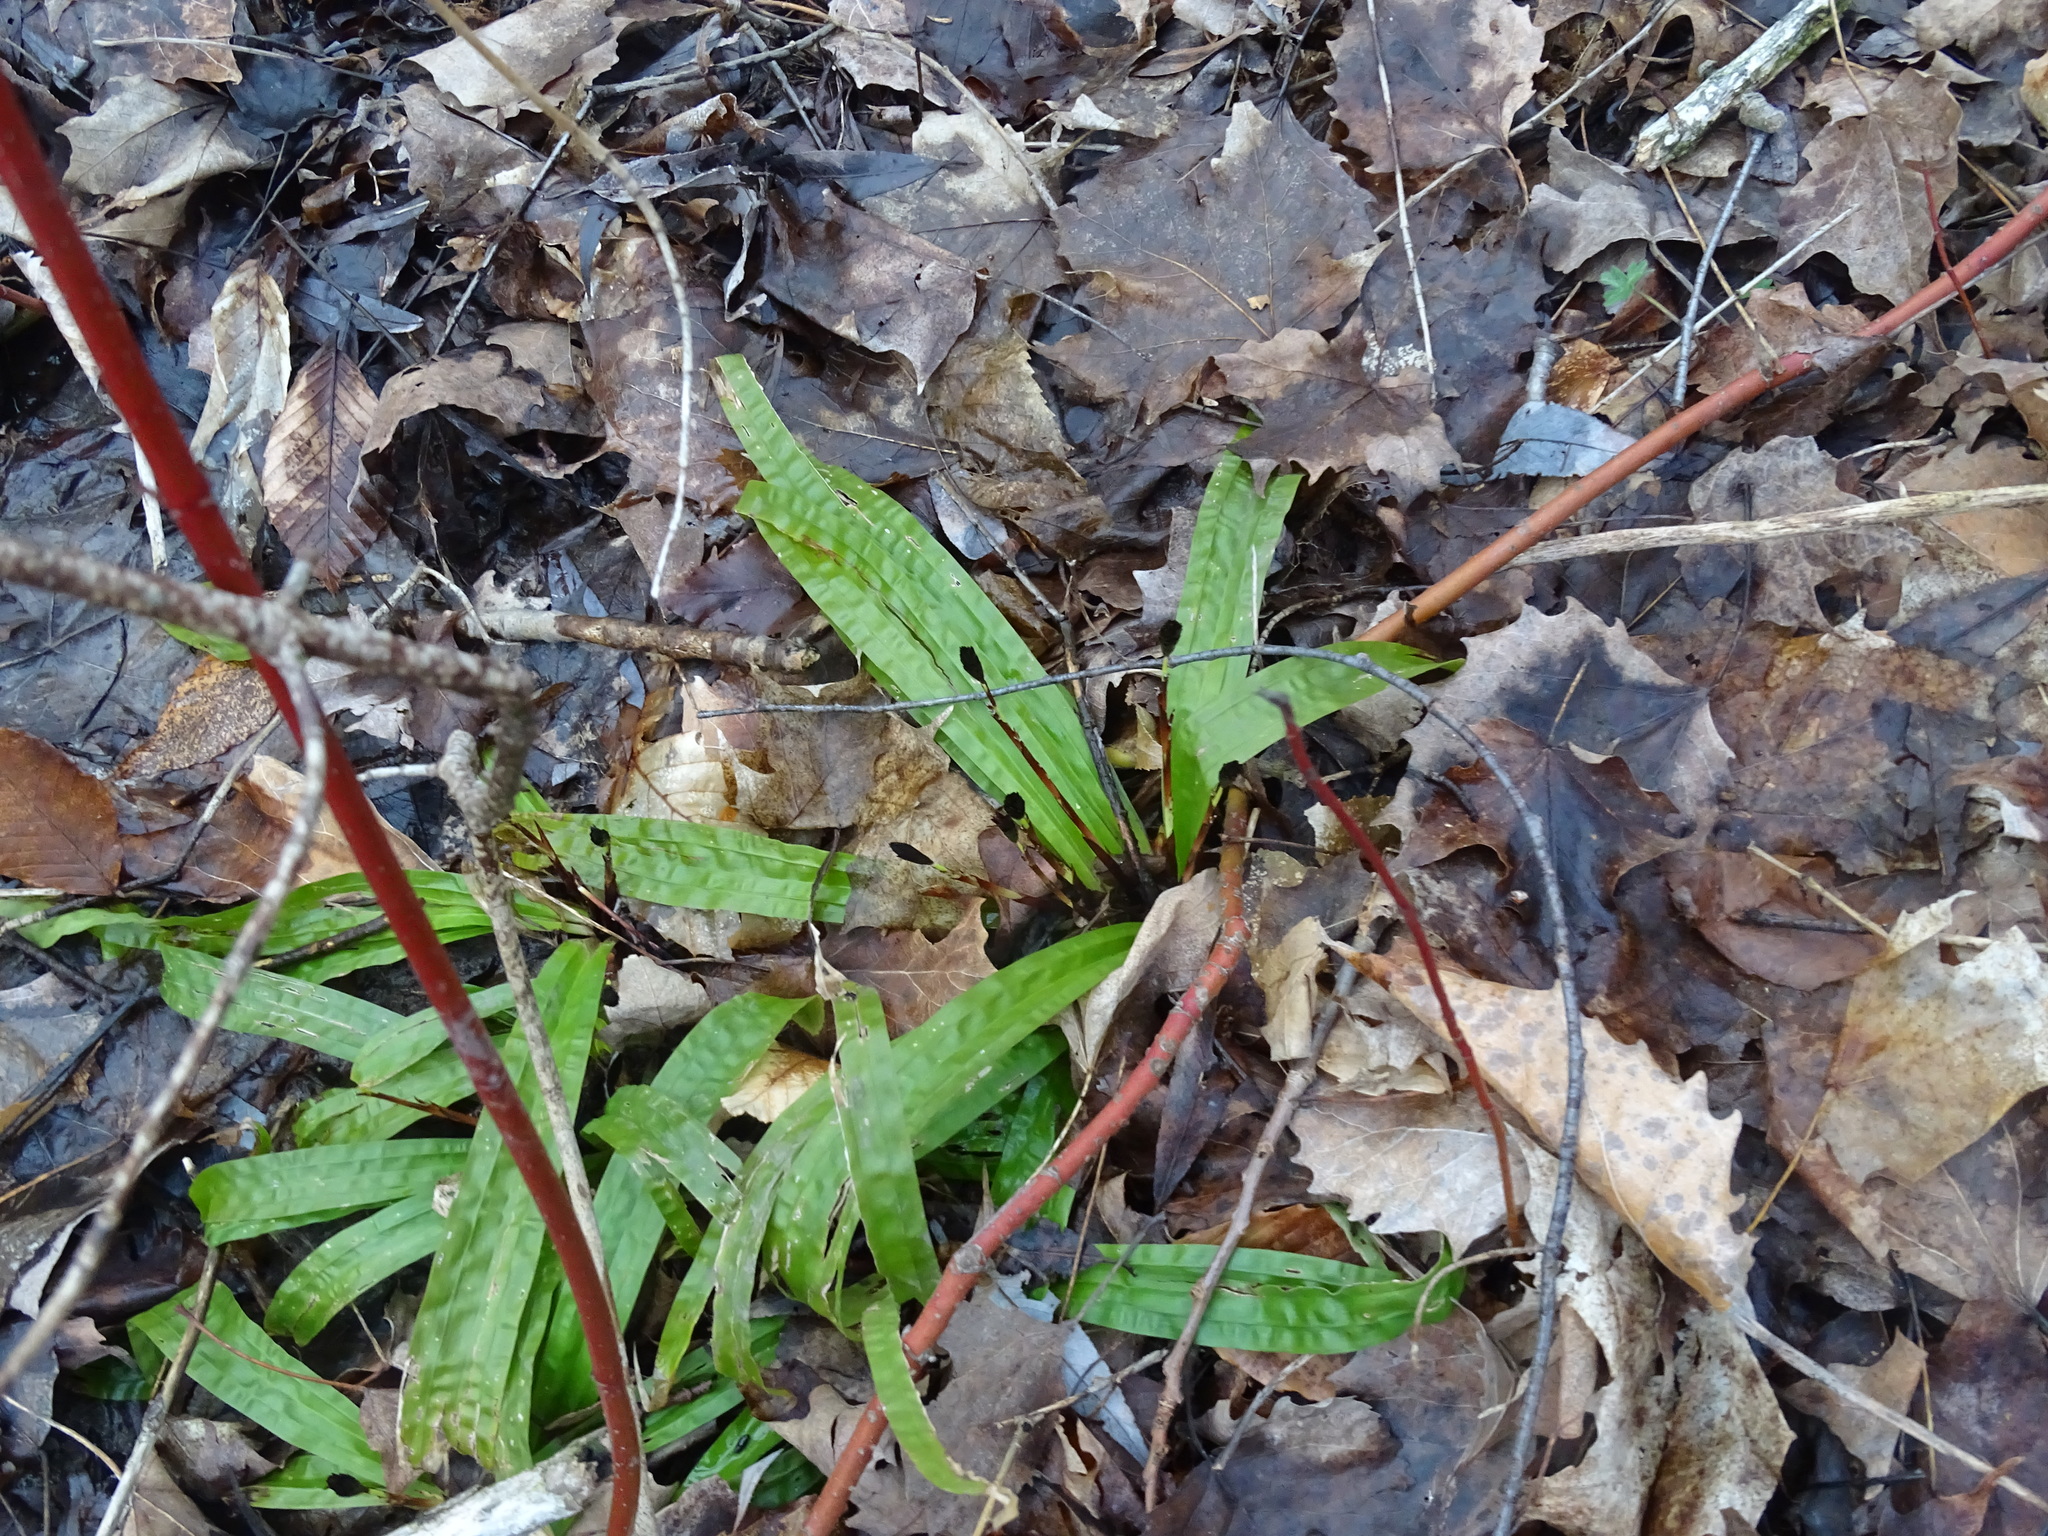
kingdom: Plantae
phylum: Tracheophyta
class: Liliopsida
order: Poales
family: Cyperaceae
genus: Carex
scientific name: Carex plantaginea
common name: Plantain-leaved sedge
